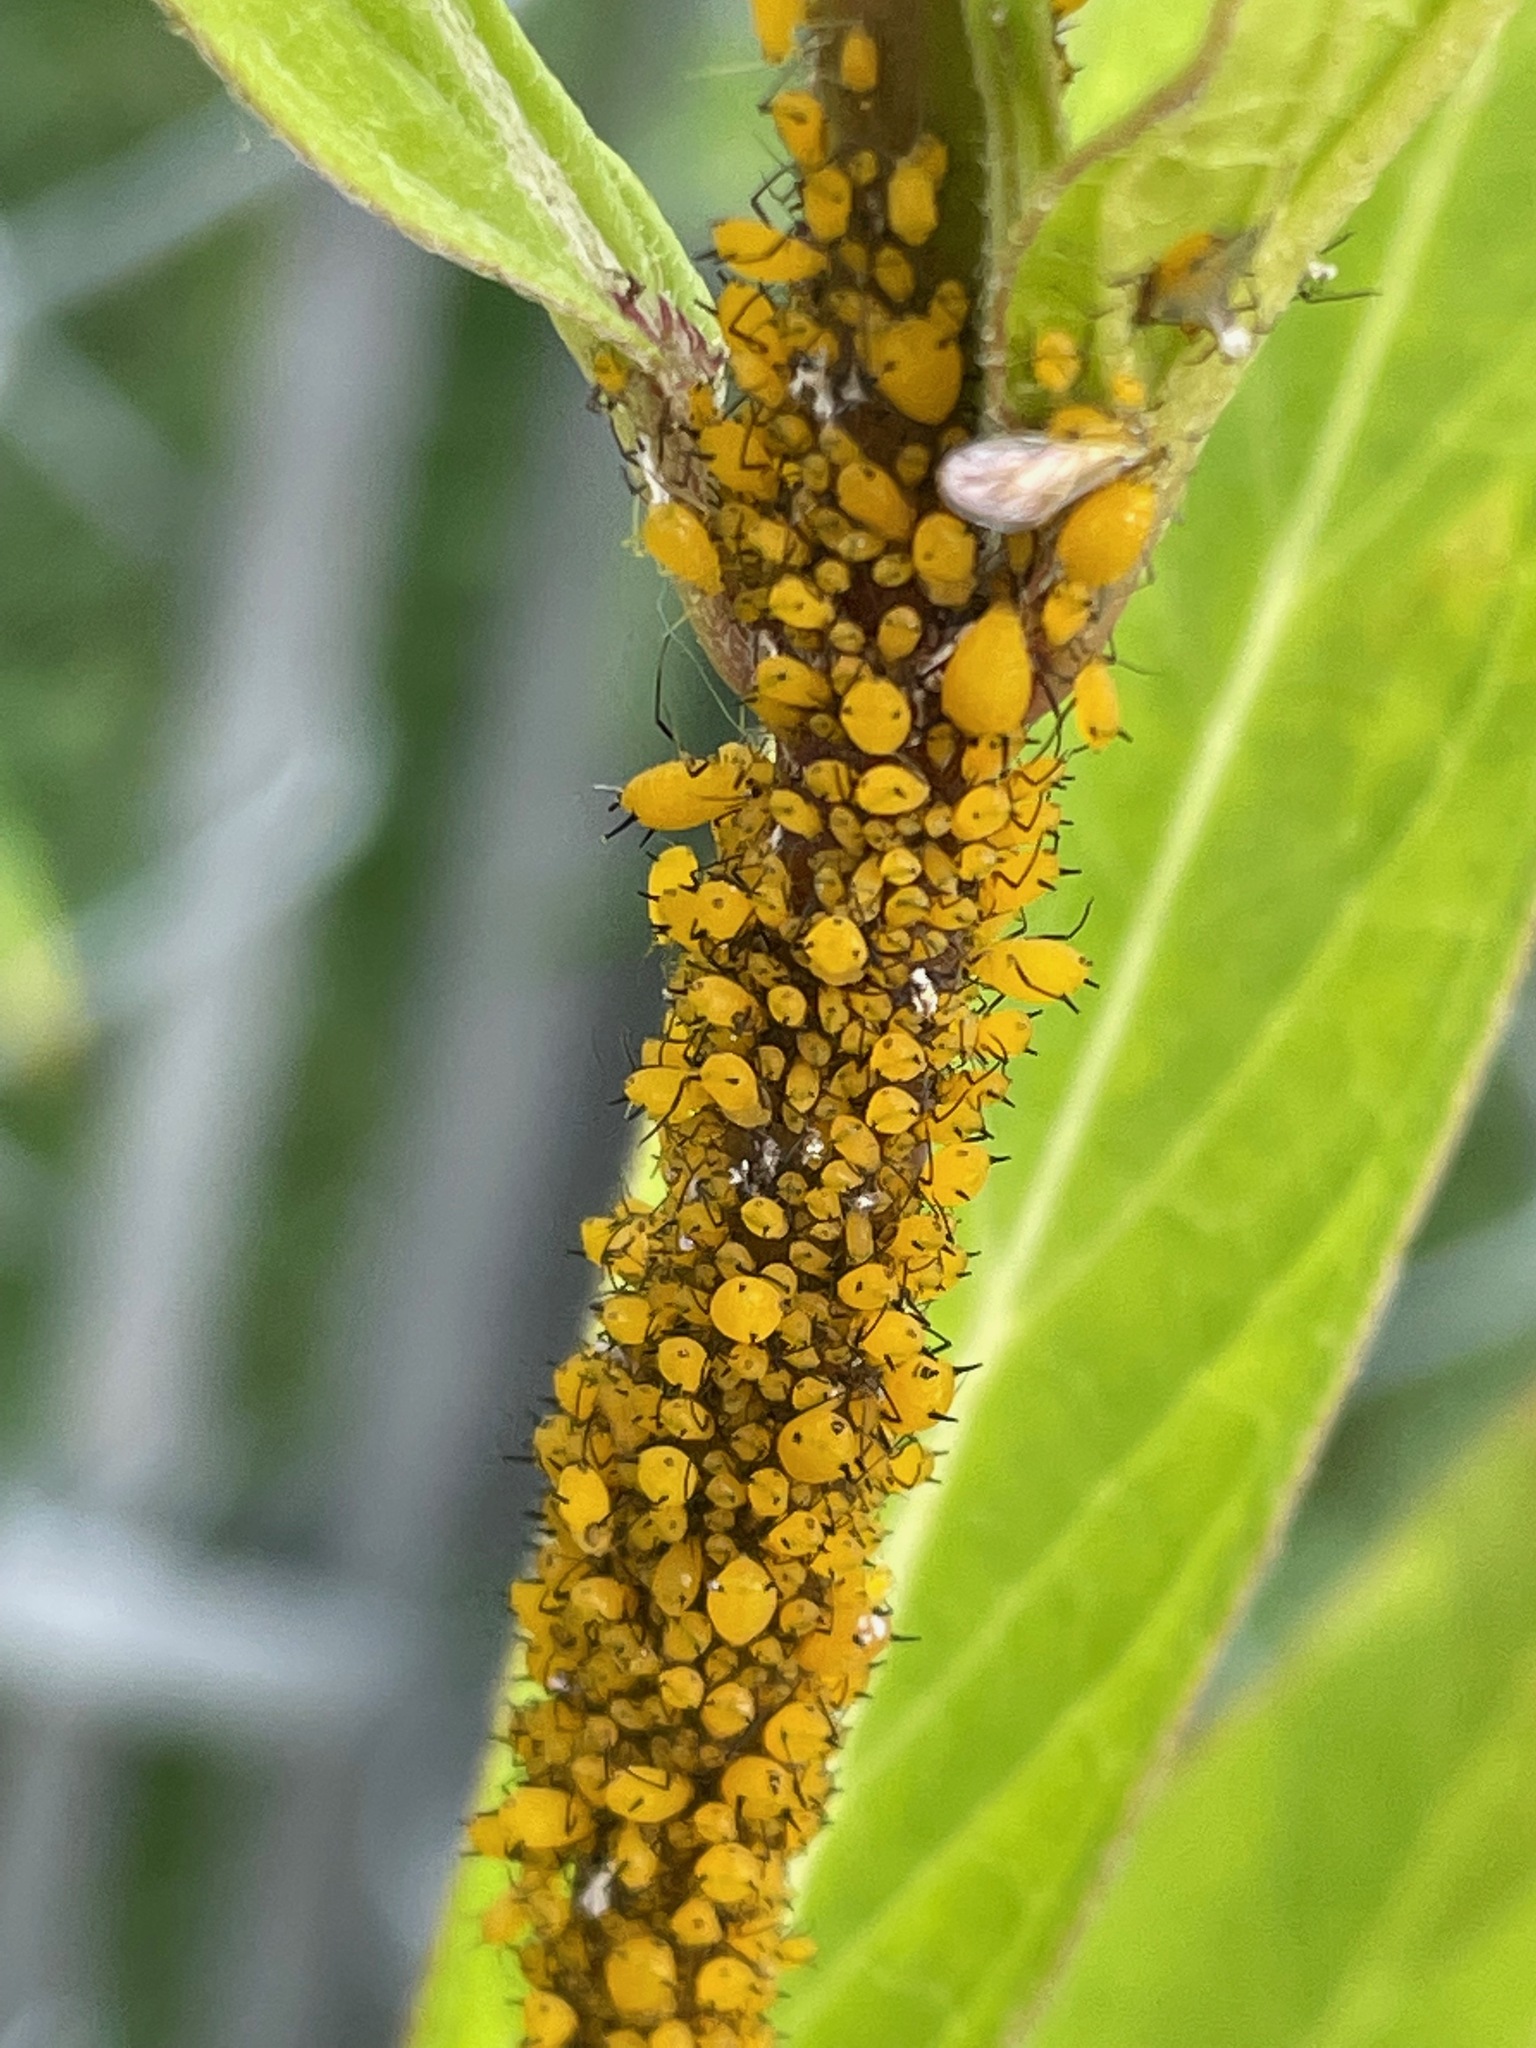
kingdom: Animalia
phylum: Arthropoda
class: Insecta
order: Hemiptera
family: Aphididae
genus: Aphis
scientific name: Aphis nerii
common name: Oleander aphid
